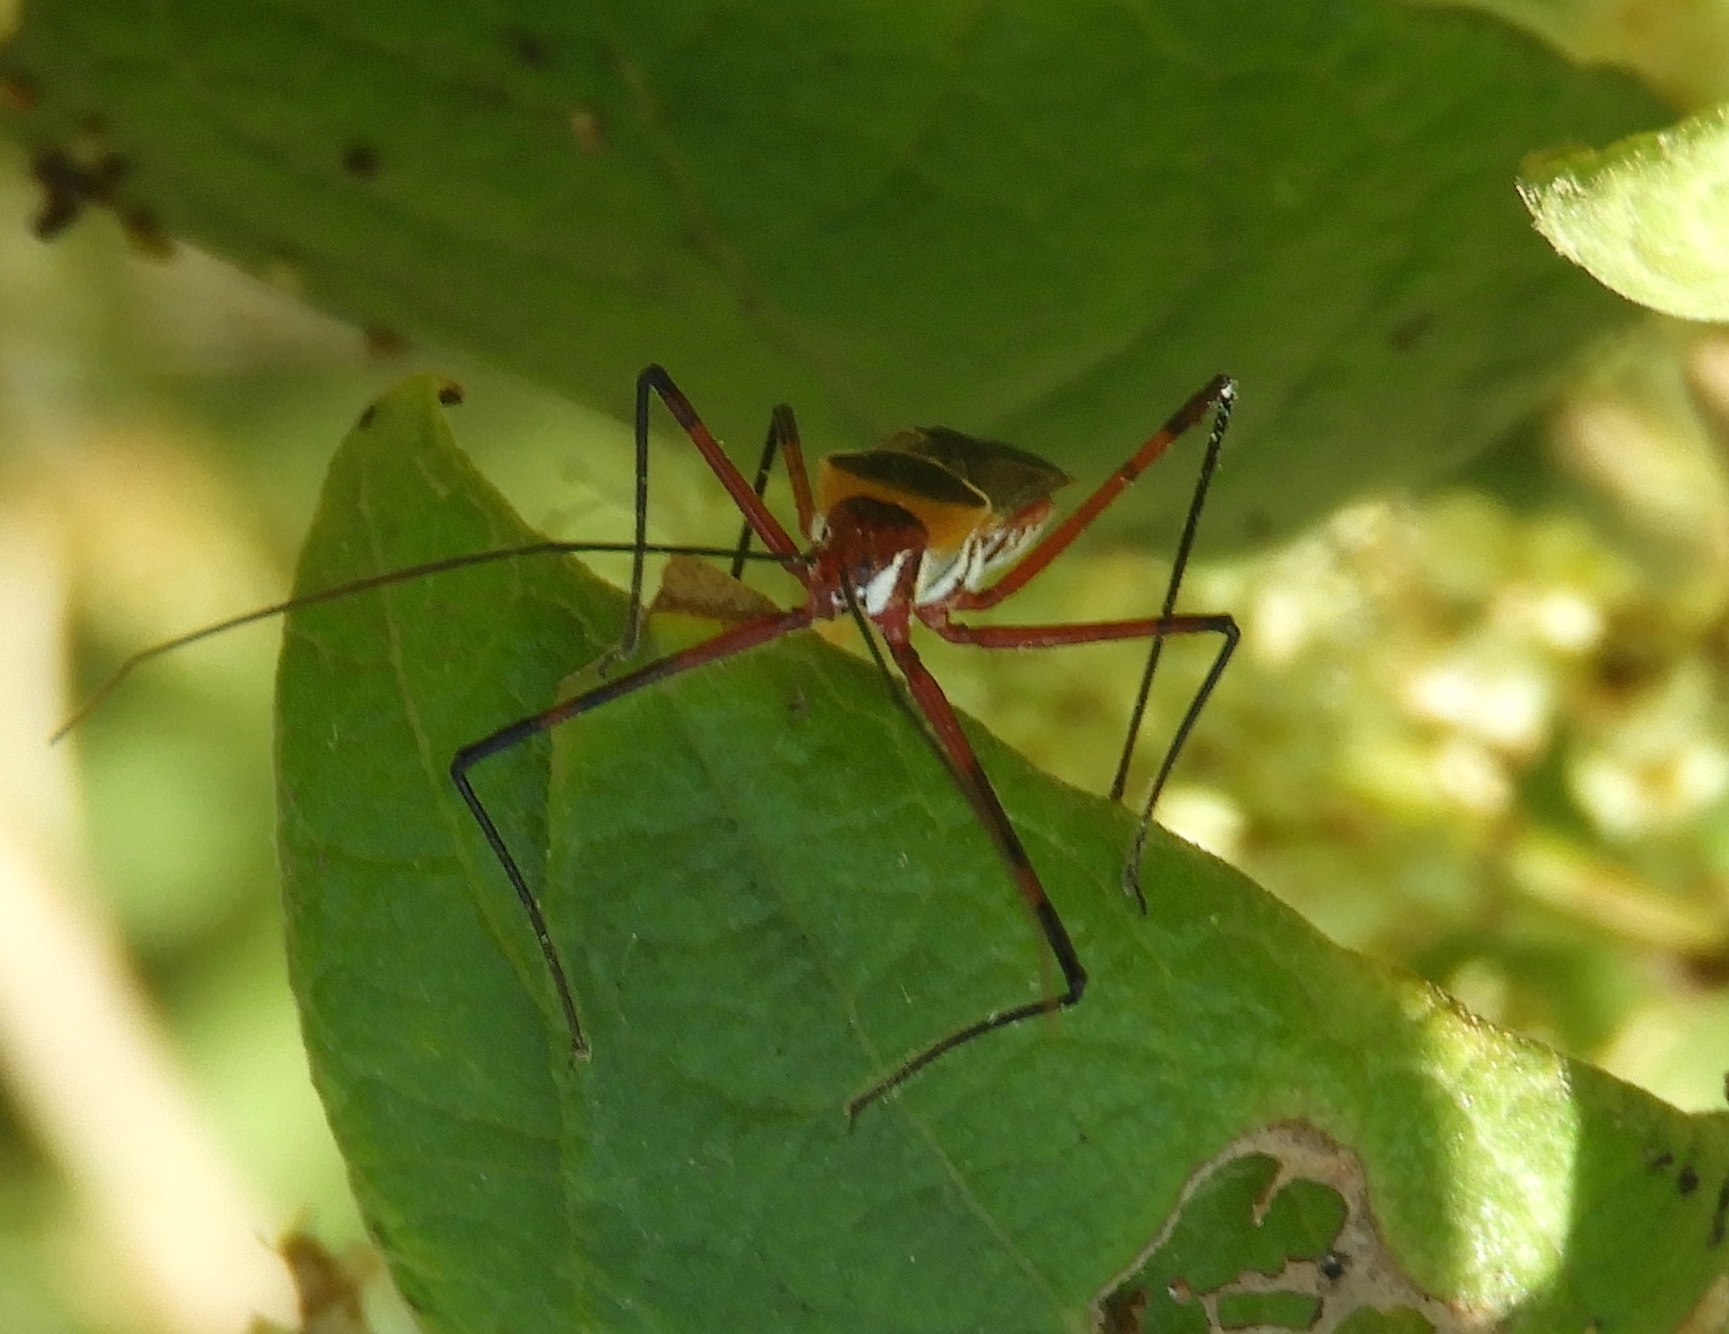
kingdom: Animalia
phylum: Arthropoda
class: Insecta
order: Hemiptera
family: Reduviidae
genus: Zelus
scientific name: Zelus grassans
